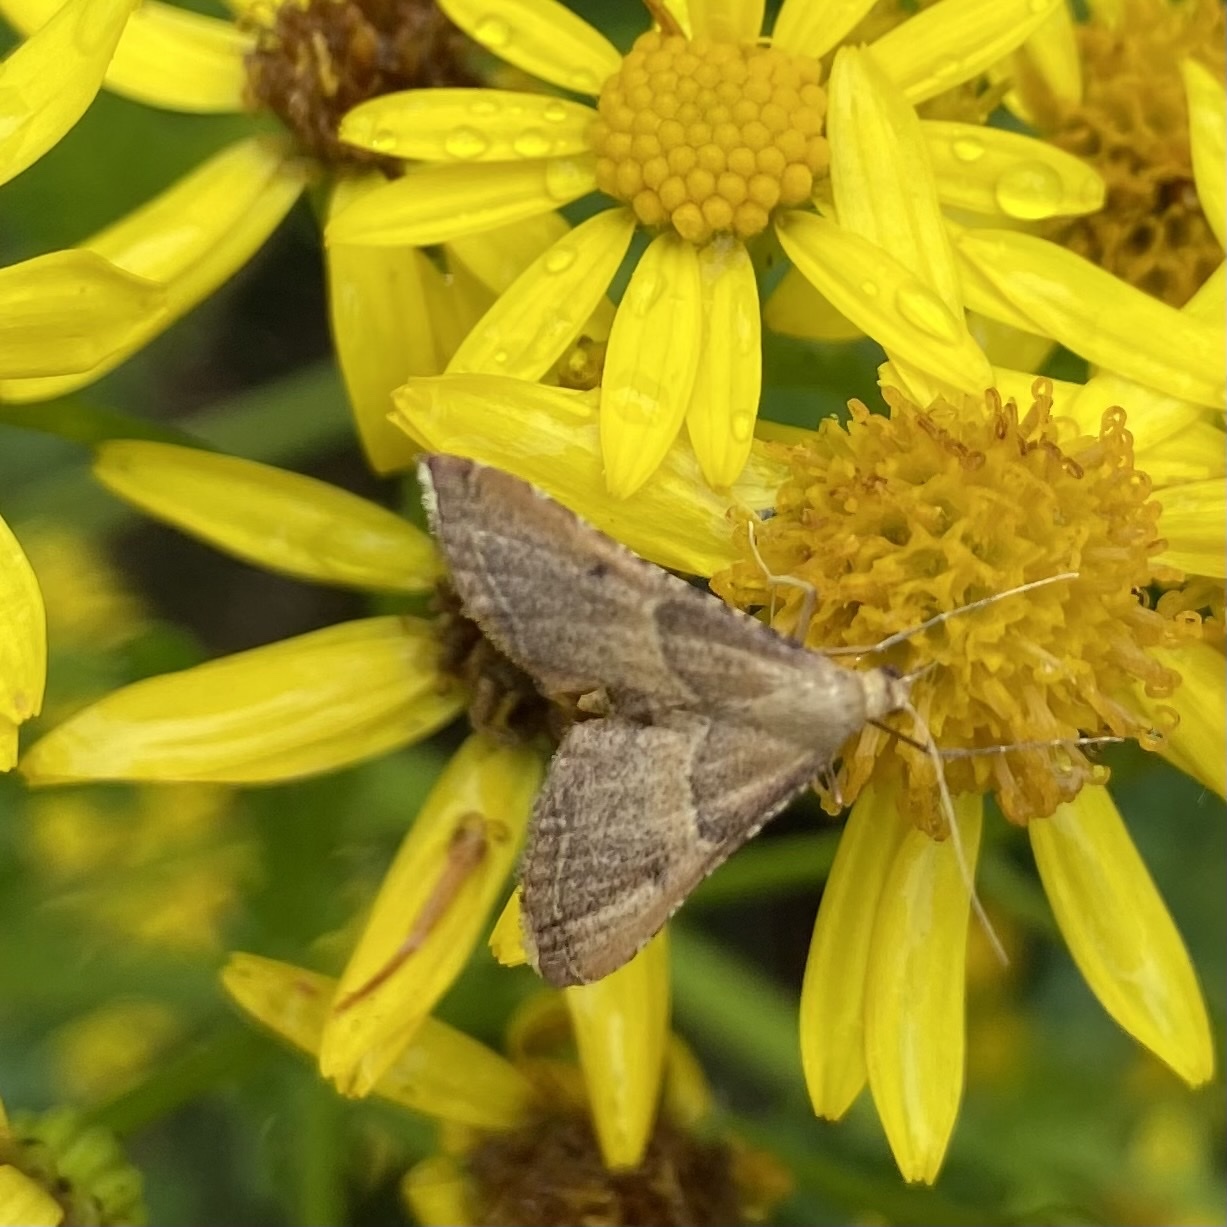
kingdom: Animalia
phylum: Arthropoda
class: Insecta
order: Lepidoptera
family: Pyralidae
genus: Endotricha
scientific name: Endotricha flammealis
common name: Rosy tabby
